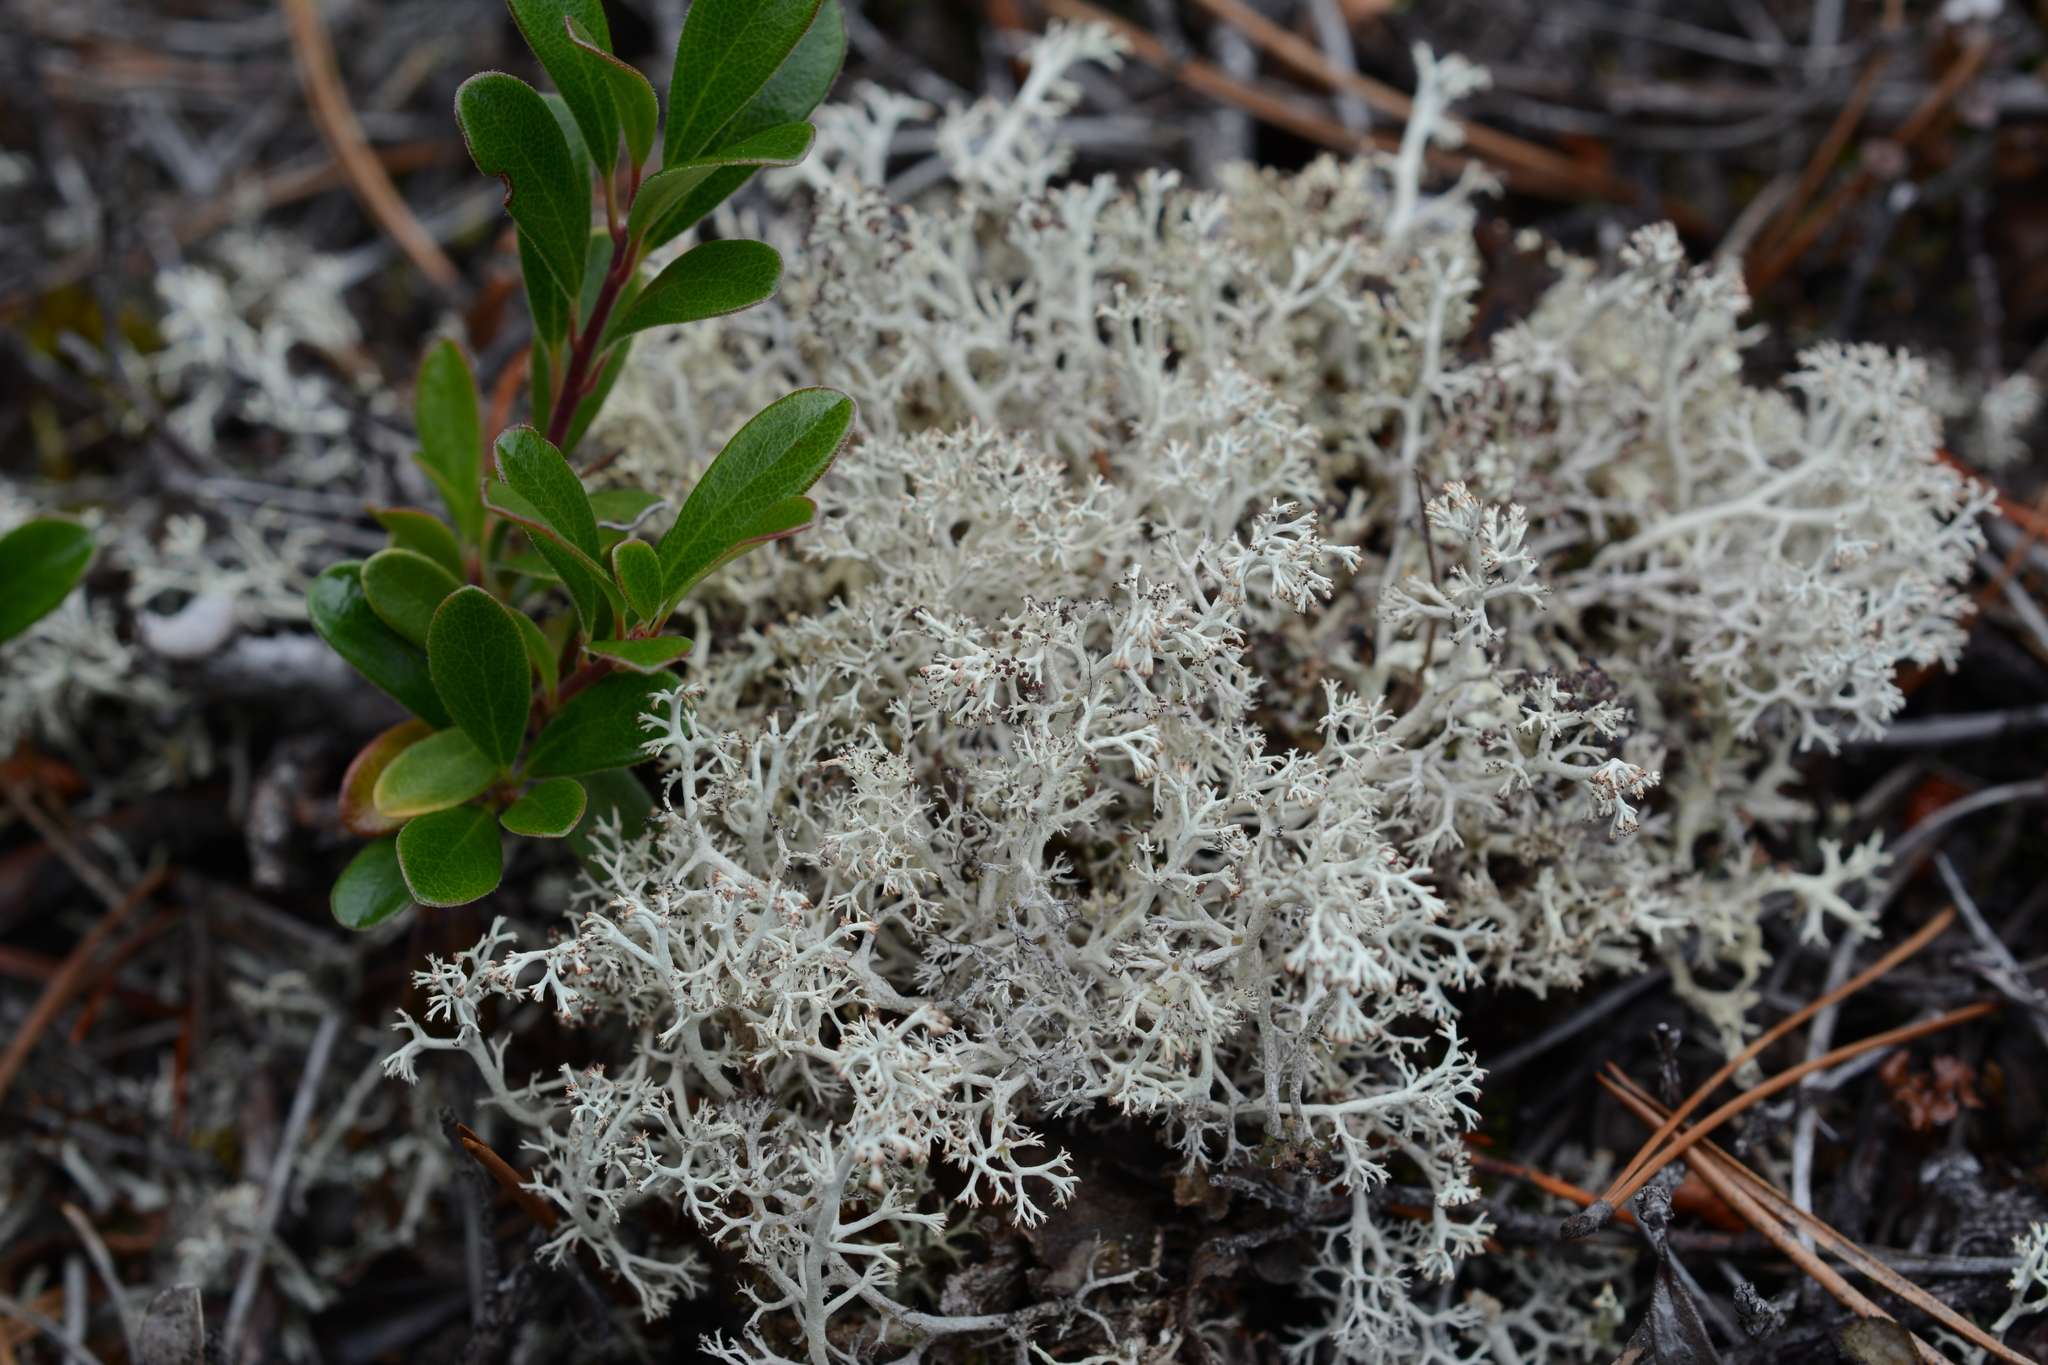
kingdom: Fungi
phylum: Ascomycota
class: Lecanoromycetes
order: Lecanorales
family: Cladoniaceae
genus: Cladonia
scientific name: Cladonia mitis
